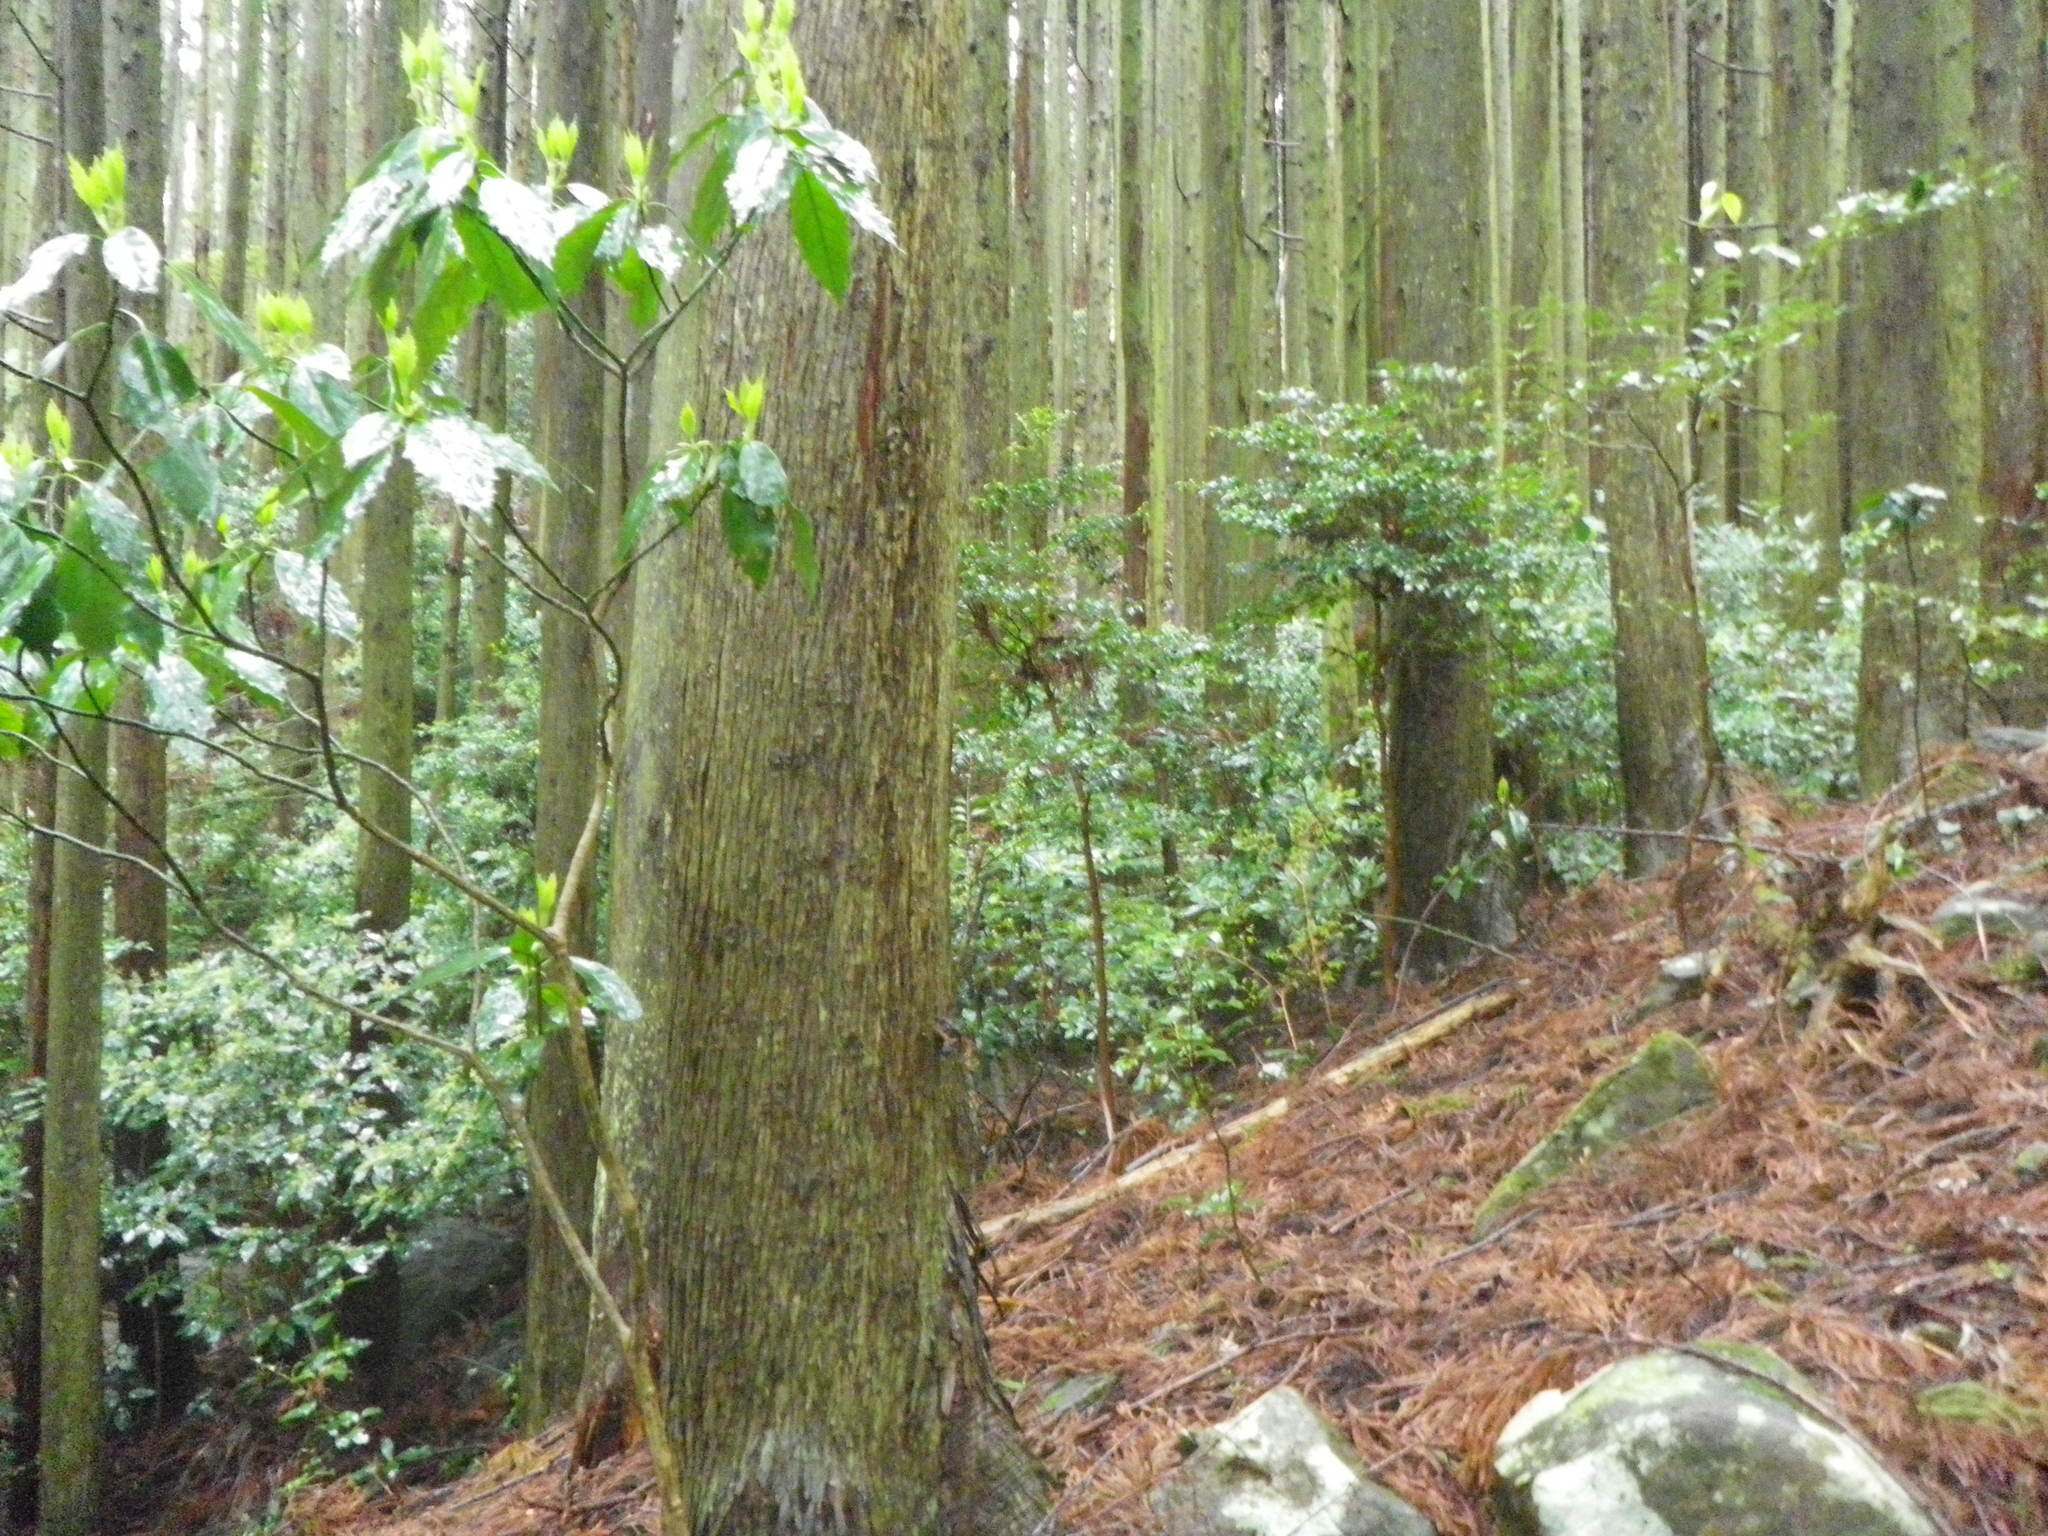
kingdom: Plantae
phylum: Tracheophyta
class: Magnoliopsida
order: Garryales
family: Garryaceae
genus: Aucuba
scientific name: Aucuba japonica
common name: Spotted-laurel
